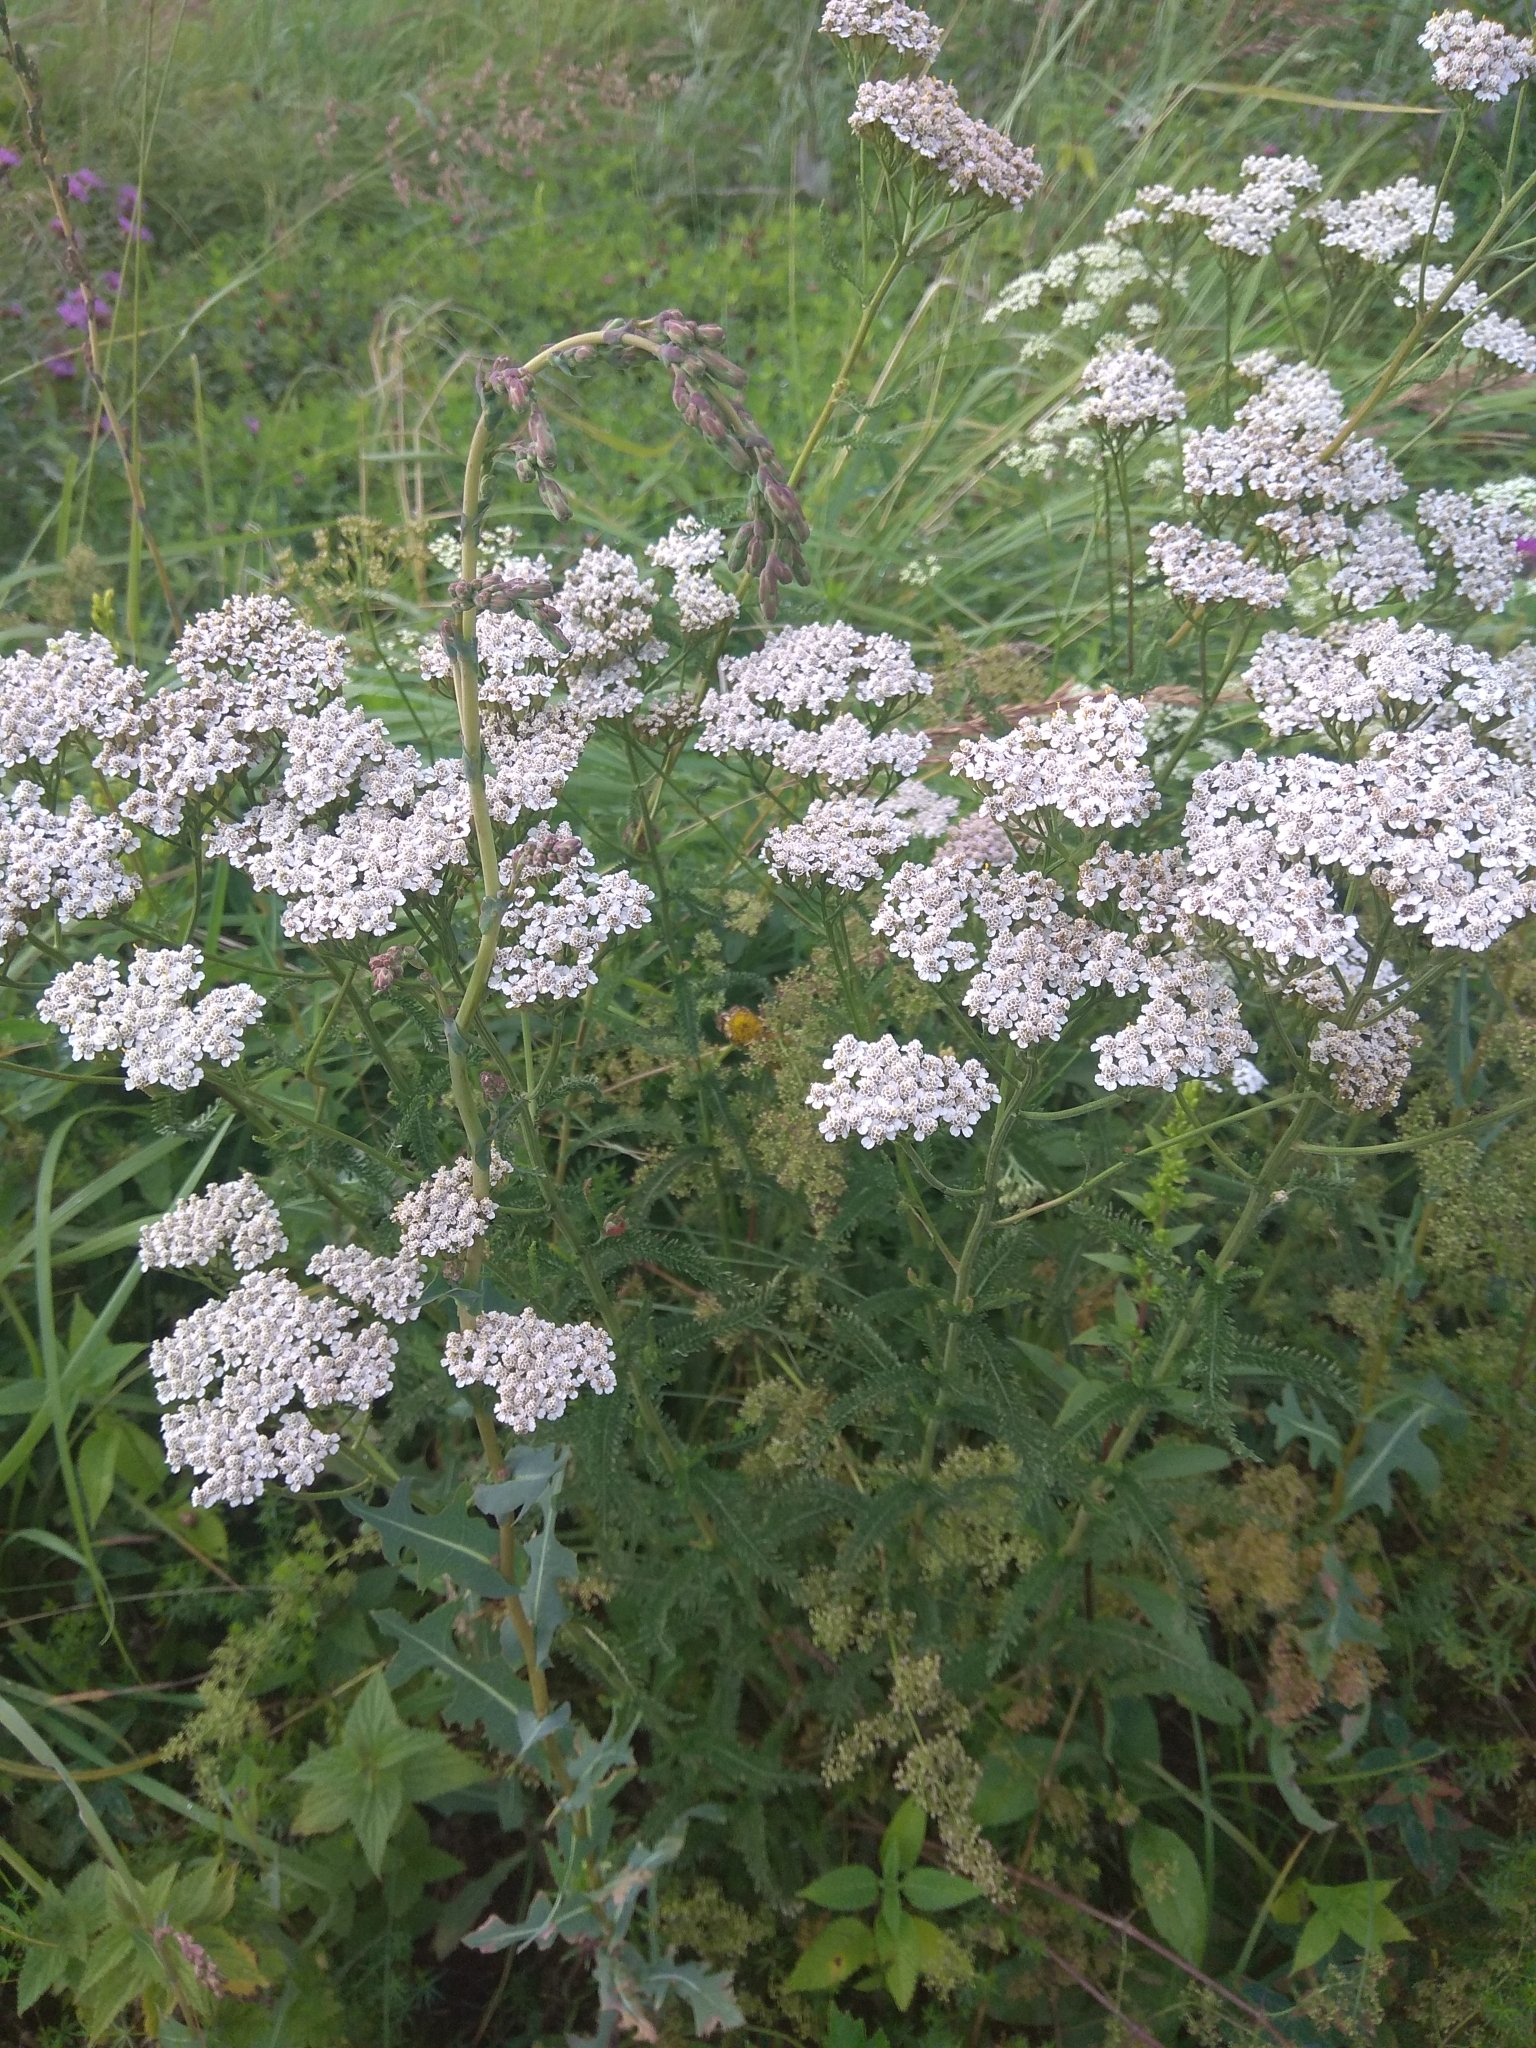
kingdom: Plantae
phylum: Tracheophyta
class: Magnoliopsida
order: Asterales
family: Asteraceae
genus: Achillea
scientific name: Achillea millefolium
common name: Yarrow
